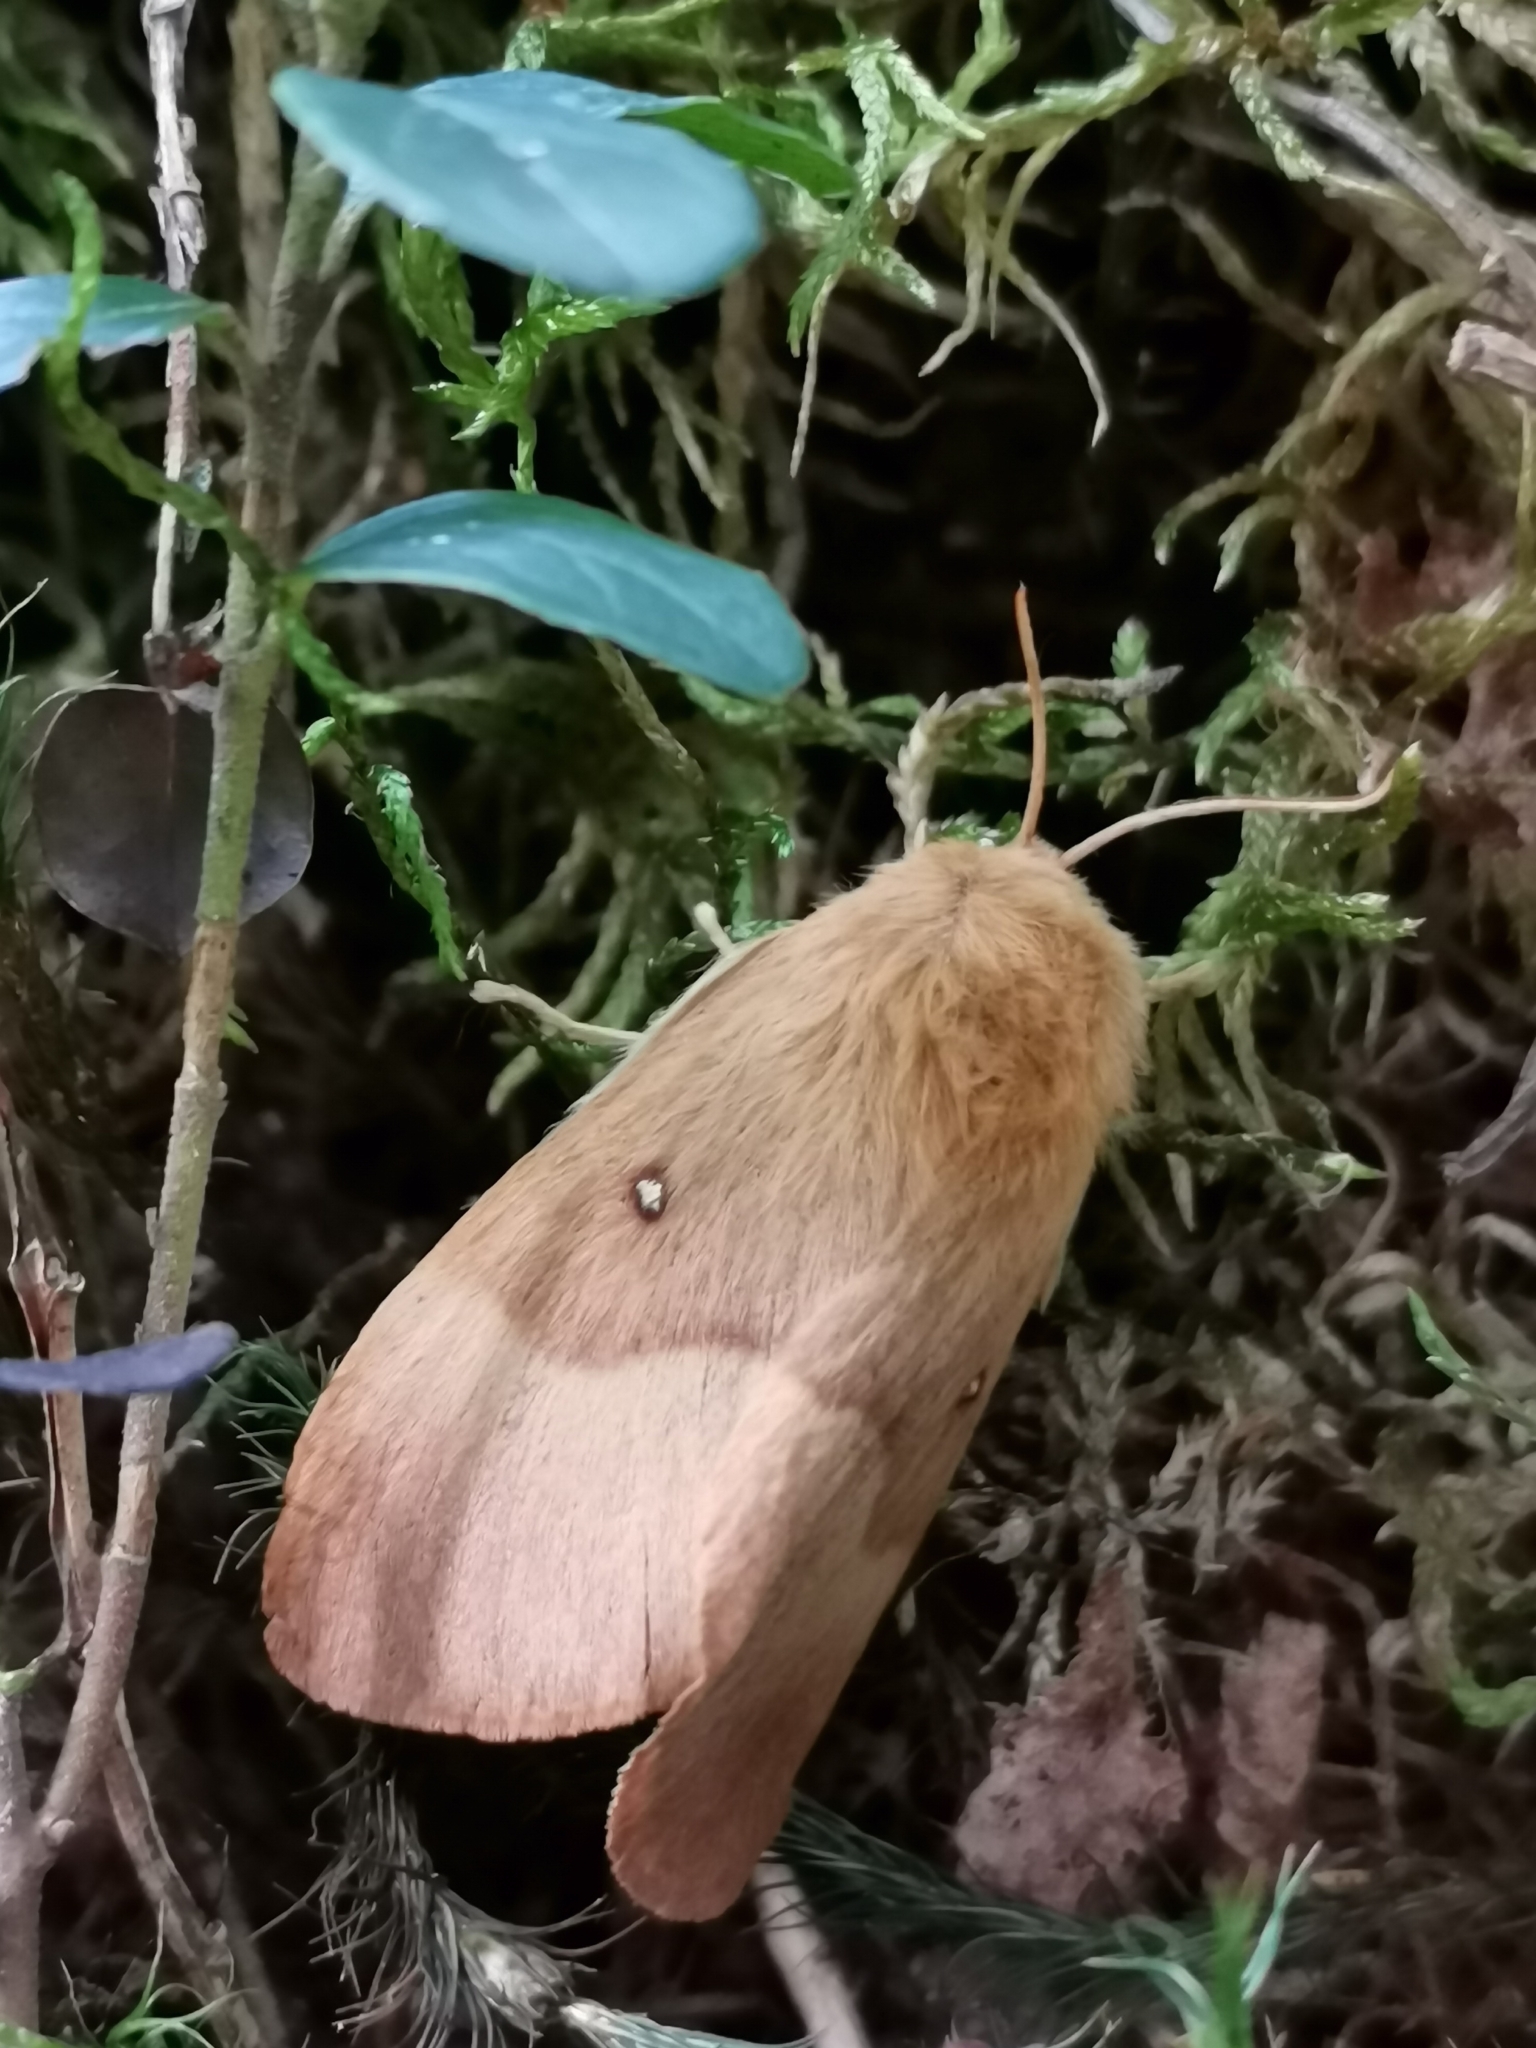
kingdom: Animalia
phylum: Arthropoda
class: Insecta
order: Lepidoptera
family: Lasiocampidae
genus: Lasiocampa
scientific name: Lasiocampa quercus
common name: Oak eggar
